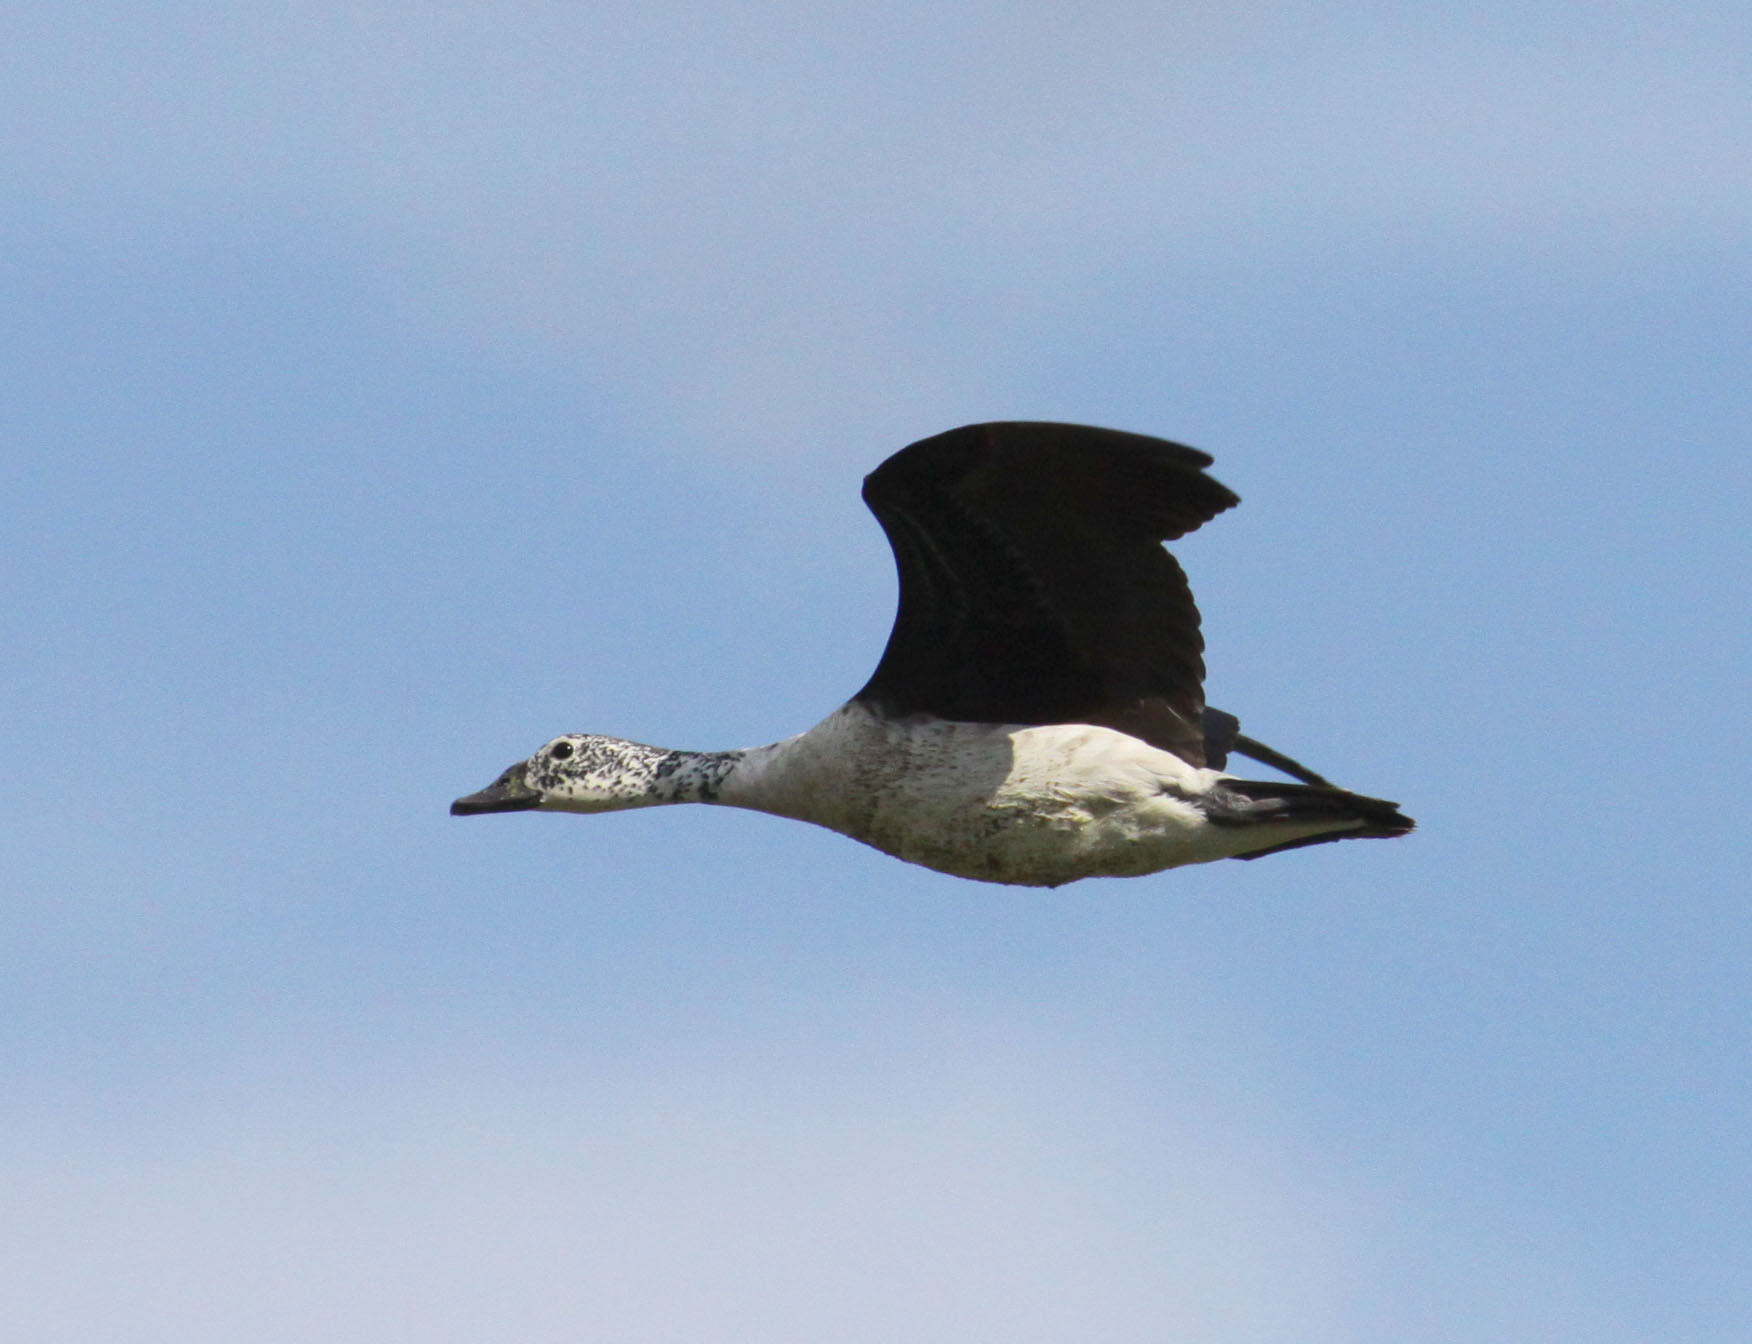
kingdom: Animalia
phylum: Chordata
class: Aves
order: Anseriformes
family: Anatidae
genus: Sarkidiornis
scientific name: Sarkidiornis melanotos
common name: Comb duck
